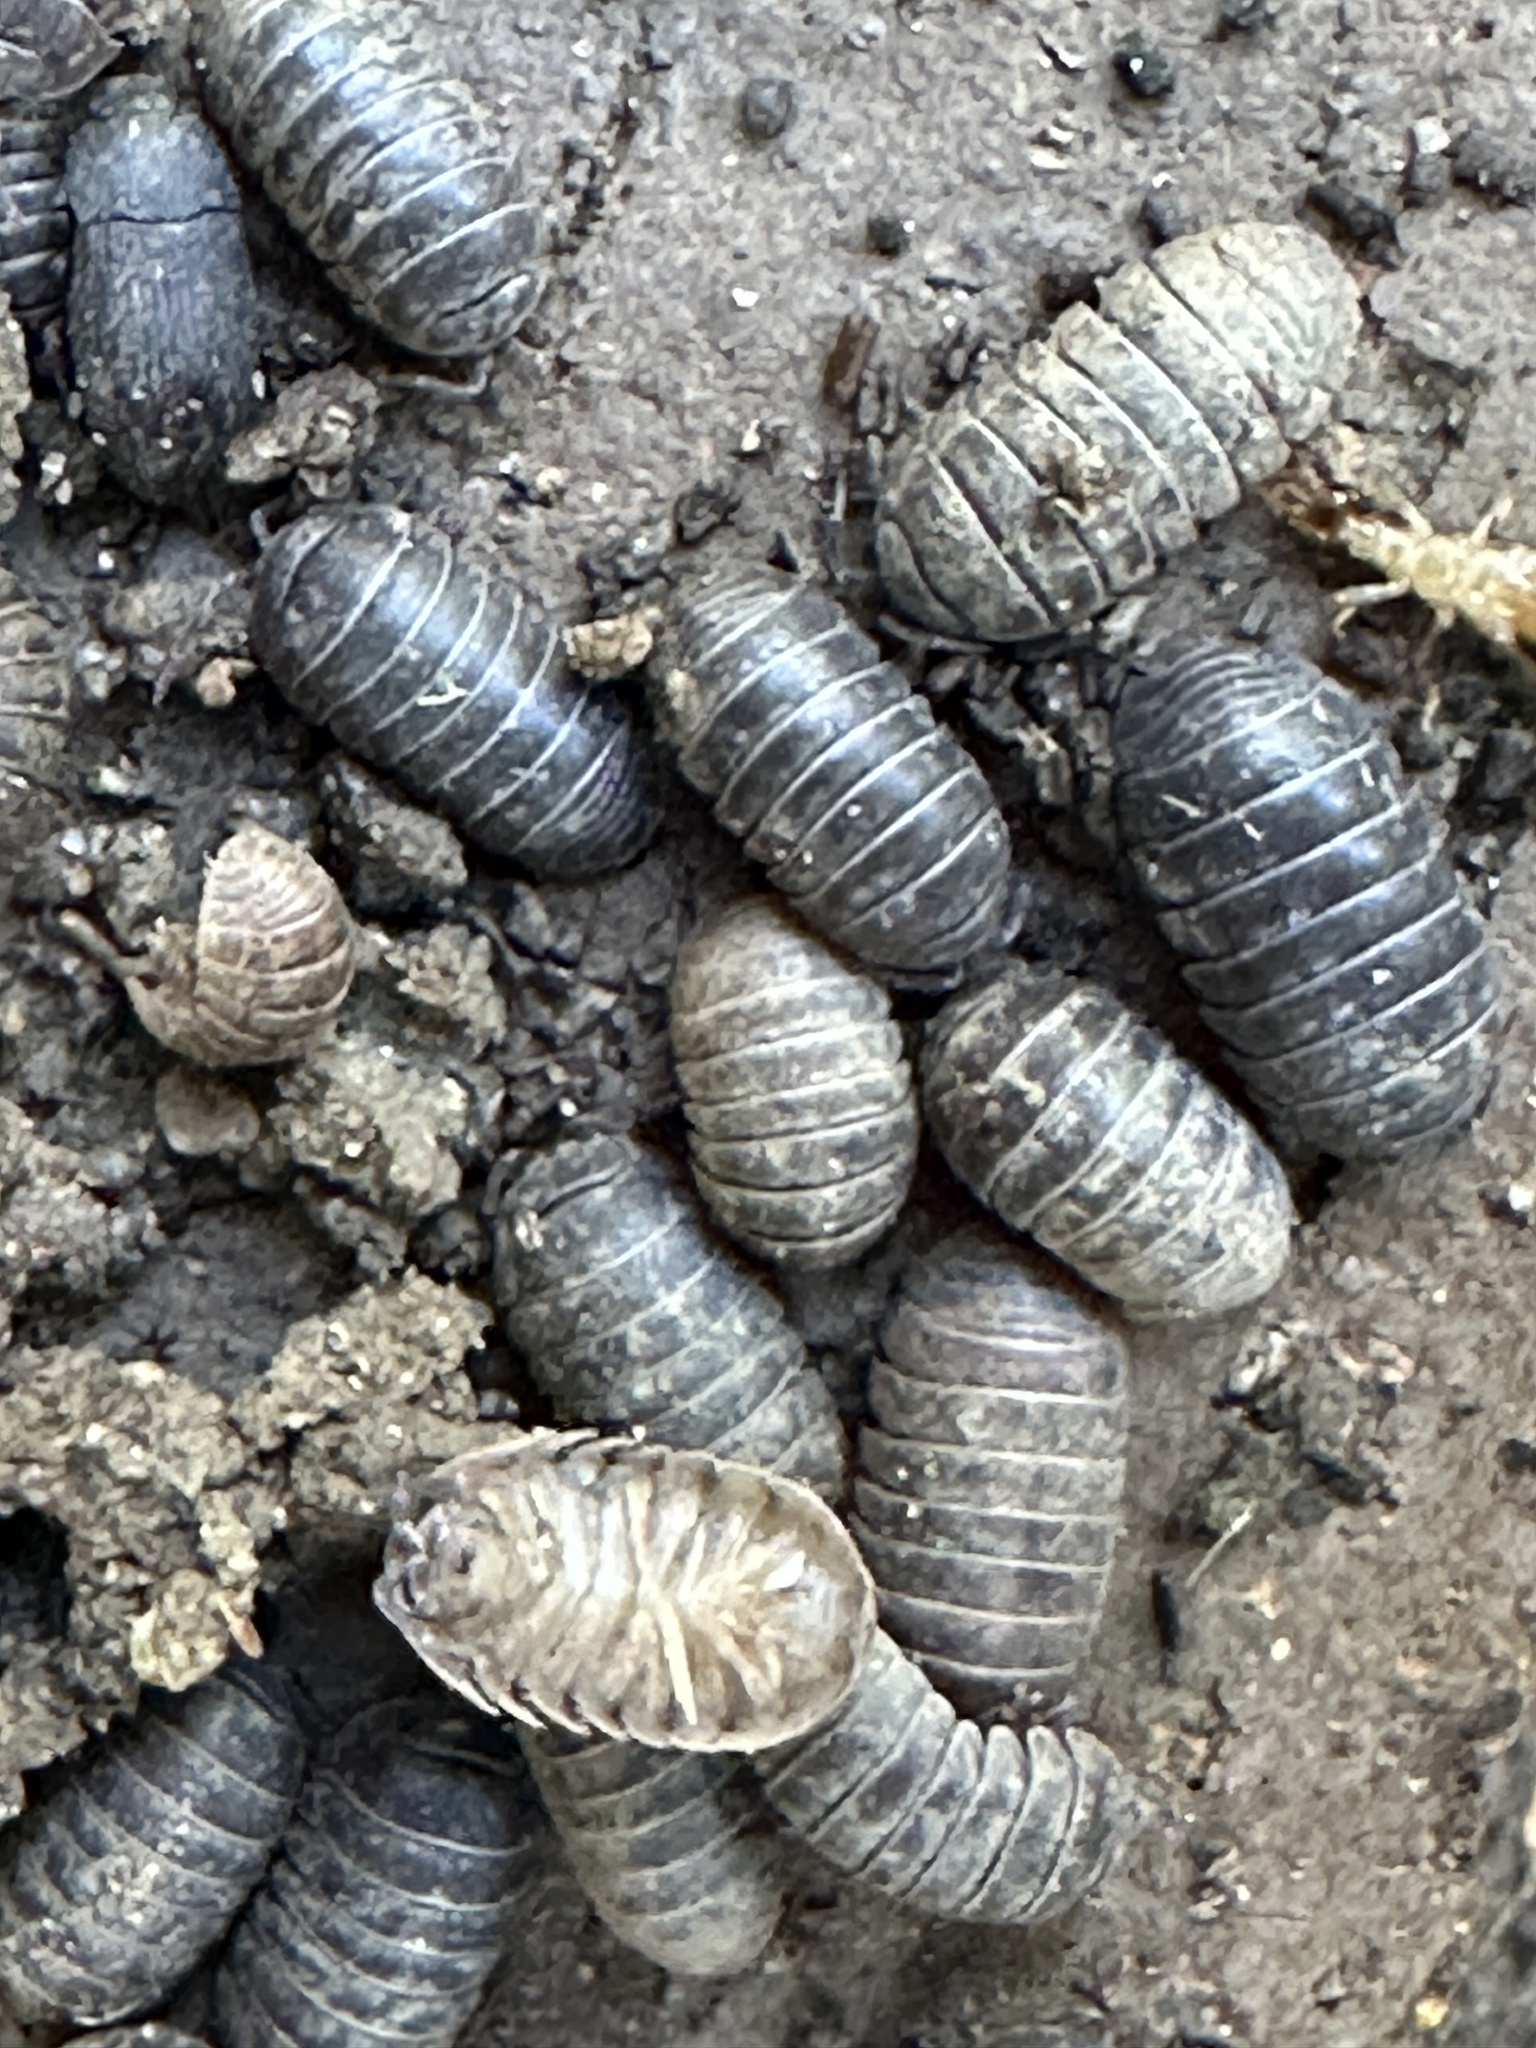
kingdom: Animalia
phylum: Arthropoda
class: Malacostraca
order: Isopoda
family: Armadillidiidae
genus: Armadillidium
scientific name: Armadillidium vulgare
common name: Common pill woodlouse
